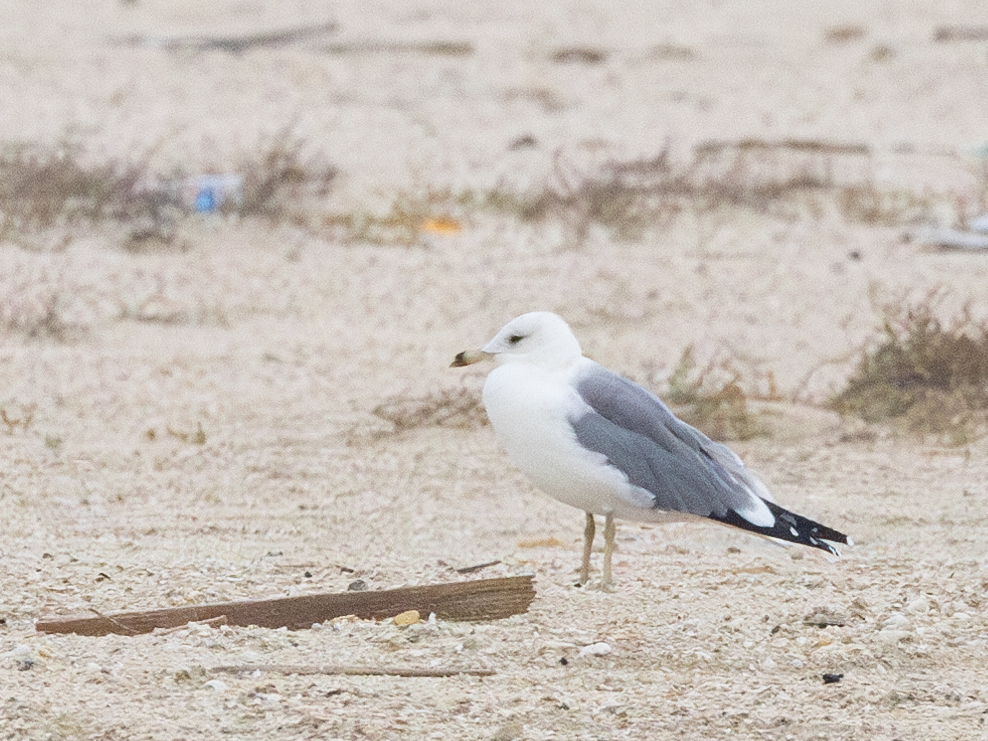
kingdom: Animalia
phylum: Chordata
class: Aves
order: Charadriiformes
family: Laridae
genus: Larus
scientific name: Larus armenicus
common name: Armenian gull
